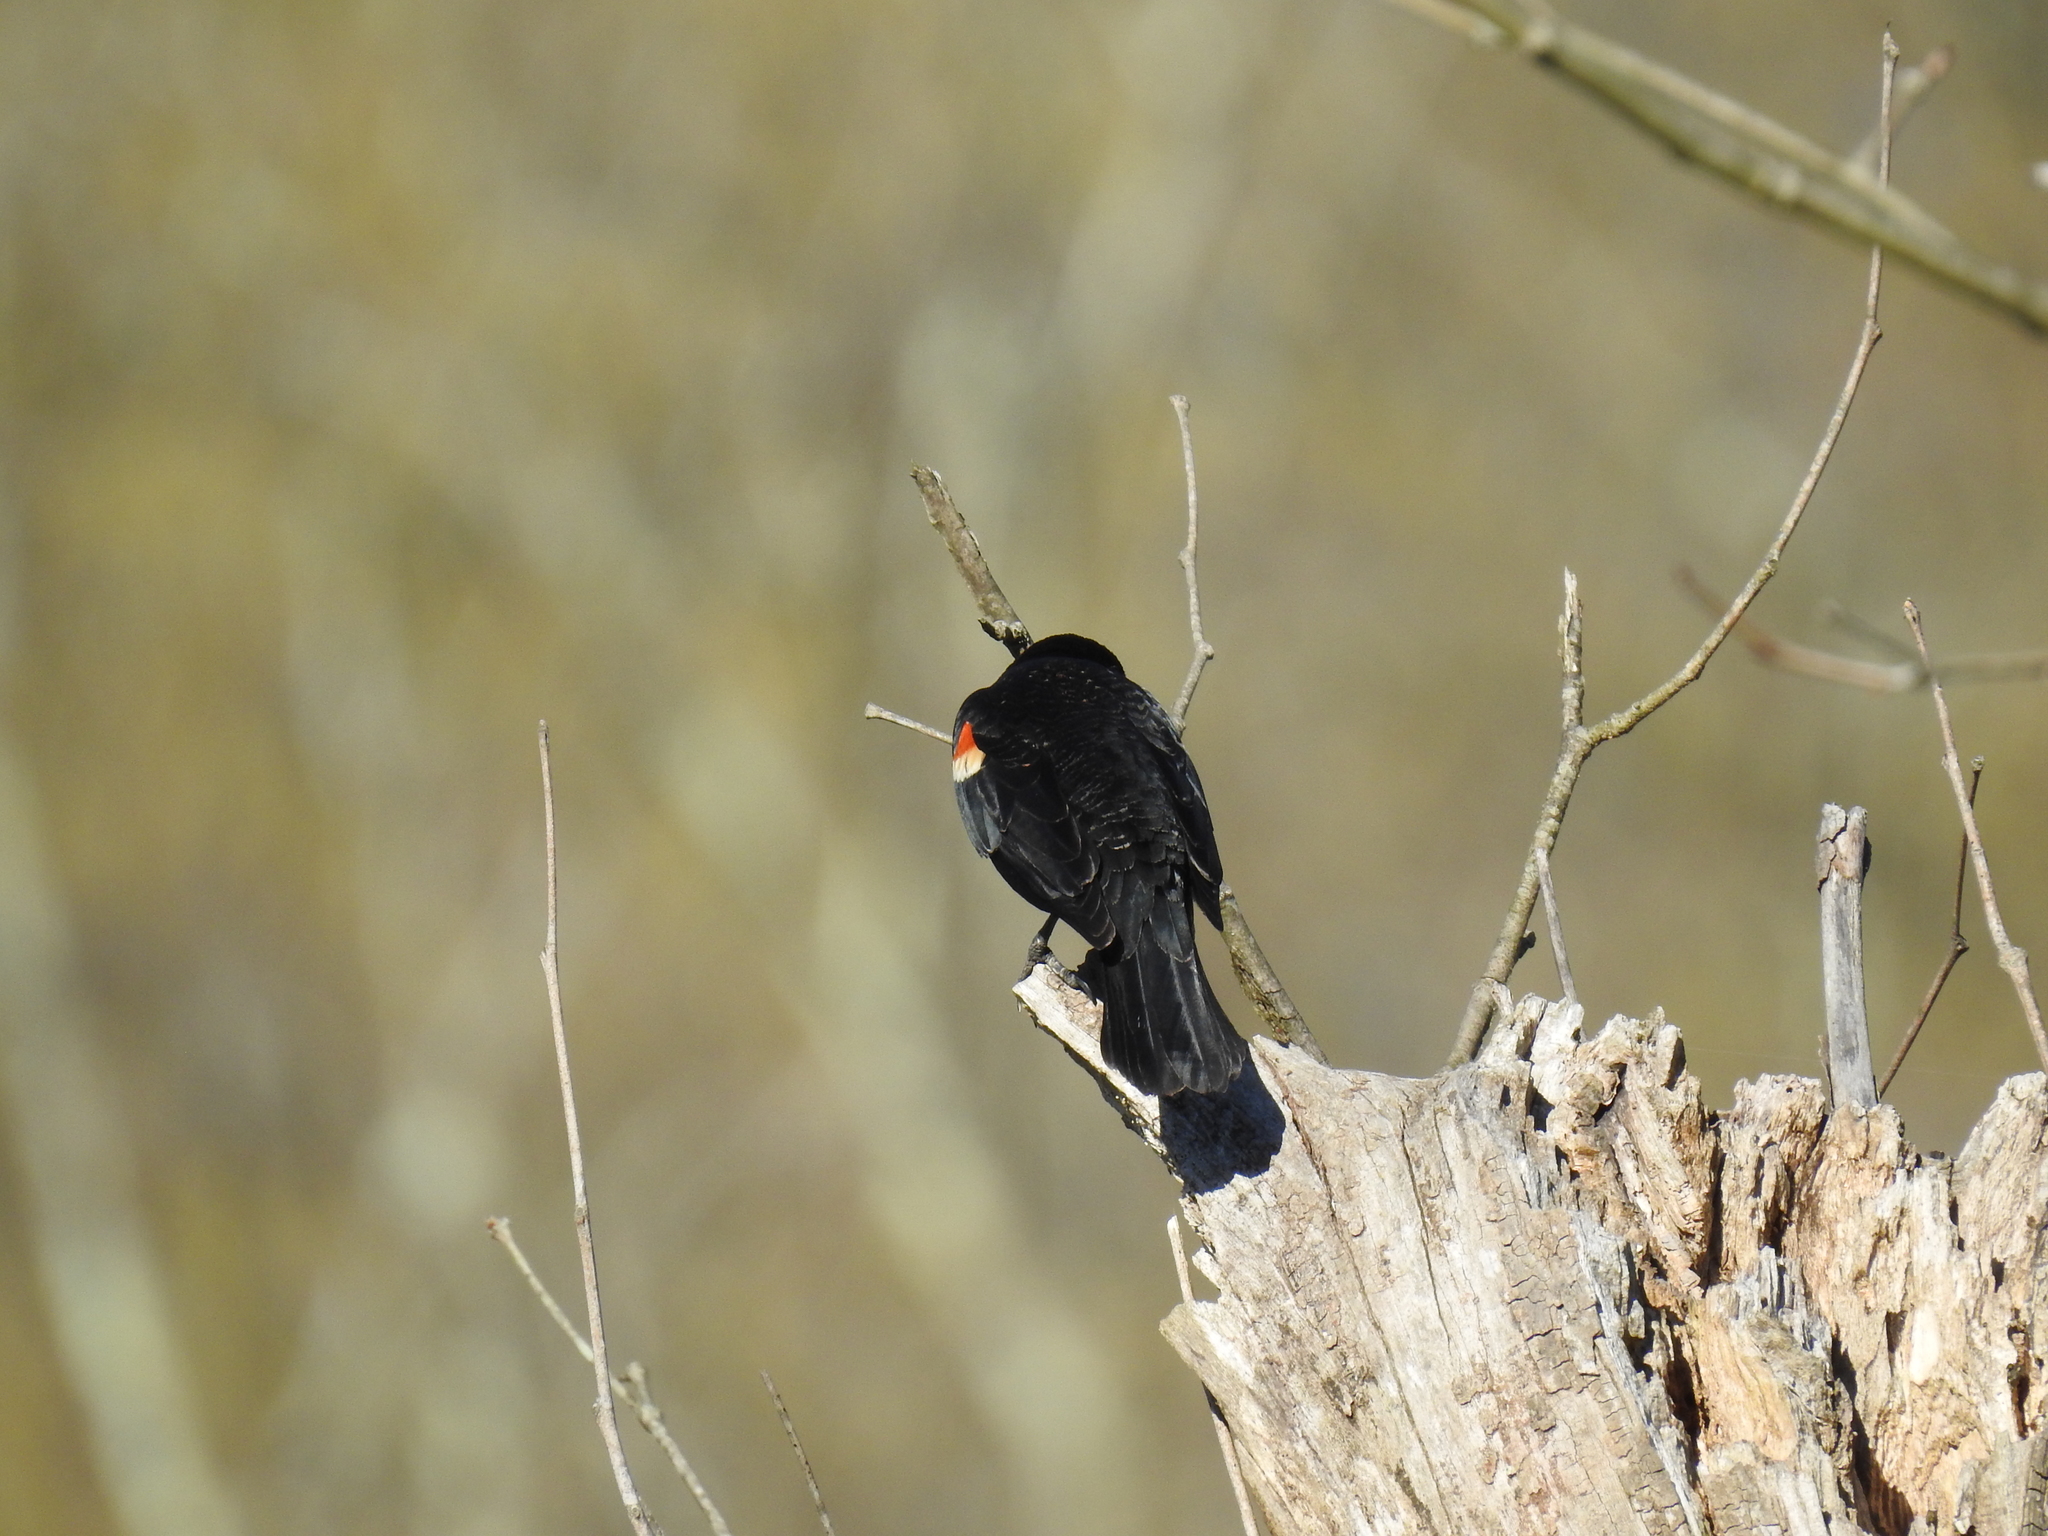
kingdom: Animalia
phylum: Chordata
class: Aves
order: Passeriformes
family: Icteridae
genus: Agelaius
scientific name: Agelaius phoeniceus
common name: Red-winged blackbird
